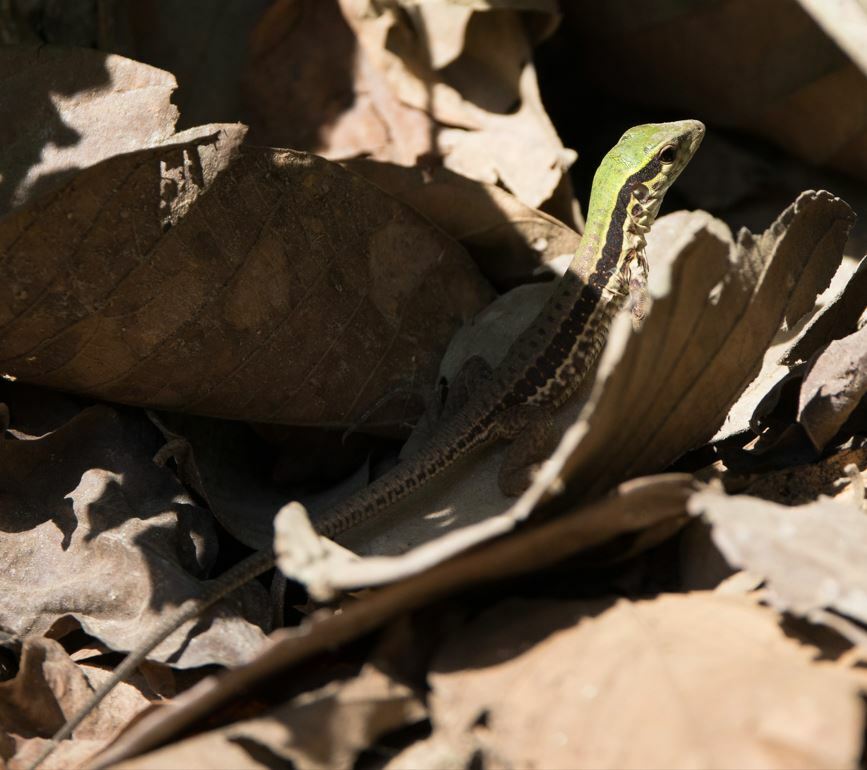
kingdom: Animalia
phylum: Chordata
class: Squamata
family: Teiidae
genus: Ameiva
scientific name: Ameiva ameiva
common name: Giant ameiva
